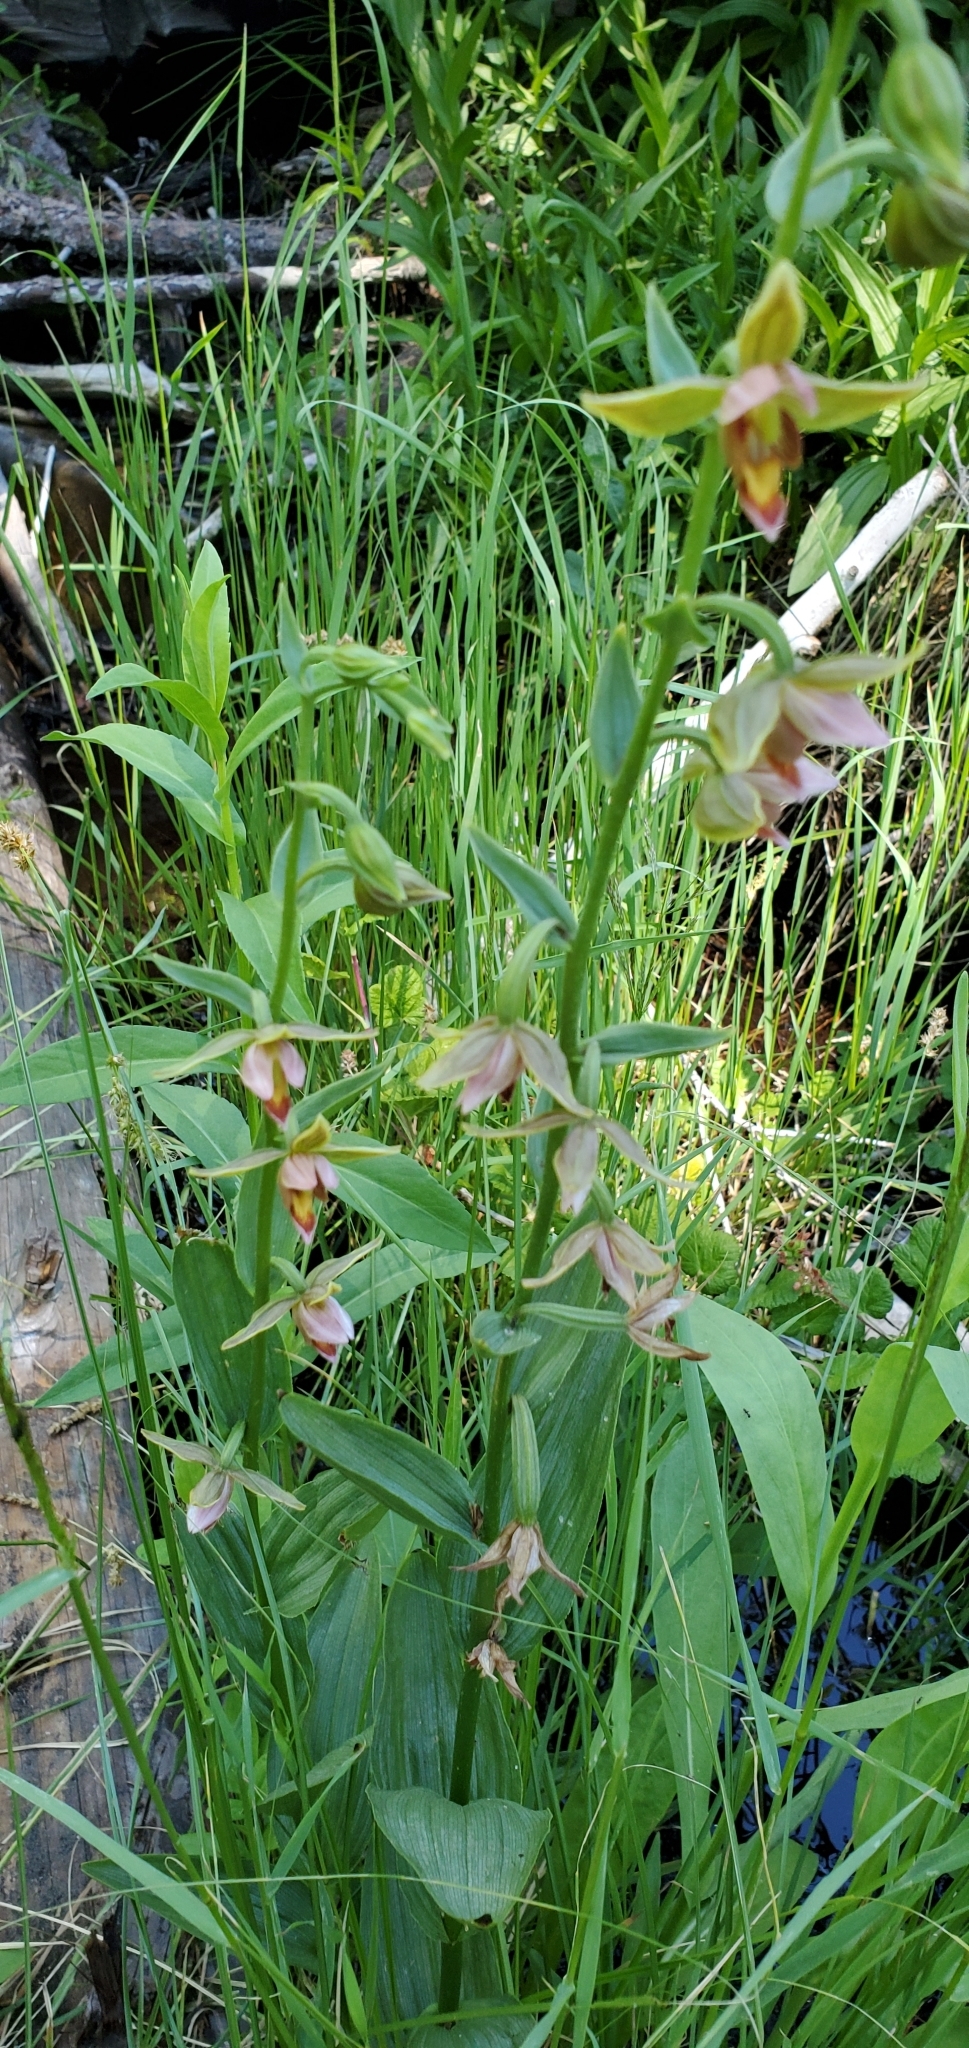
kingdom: Plantae
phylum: Tracheophyta
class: Liliopsida
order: Asparagales
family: Orchidaceae
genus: Epipactis
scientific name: Epipactis gigantea
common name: Chatterbox
